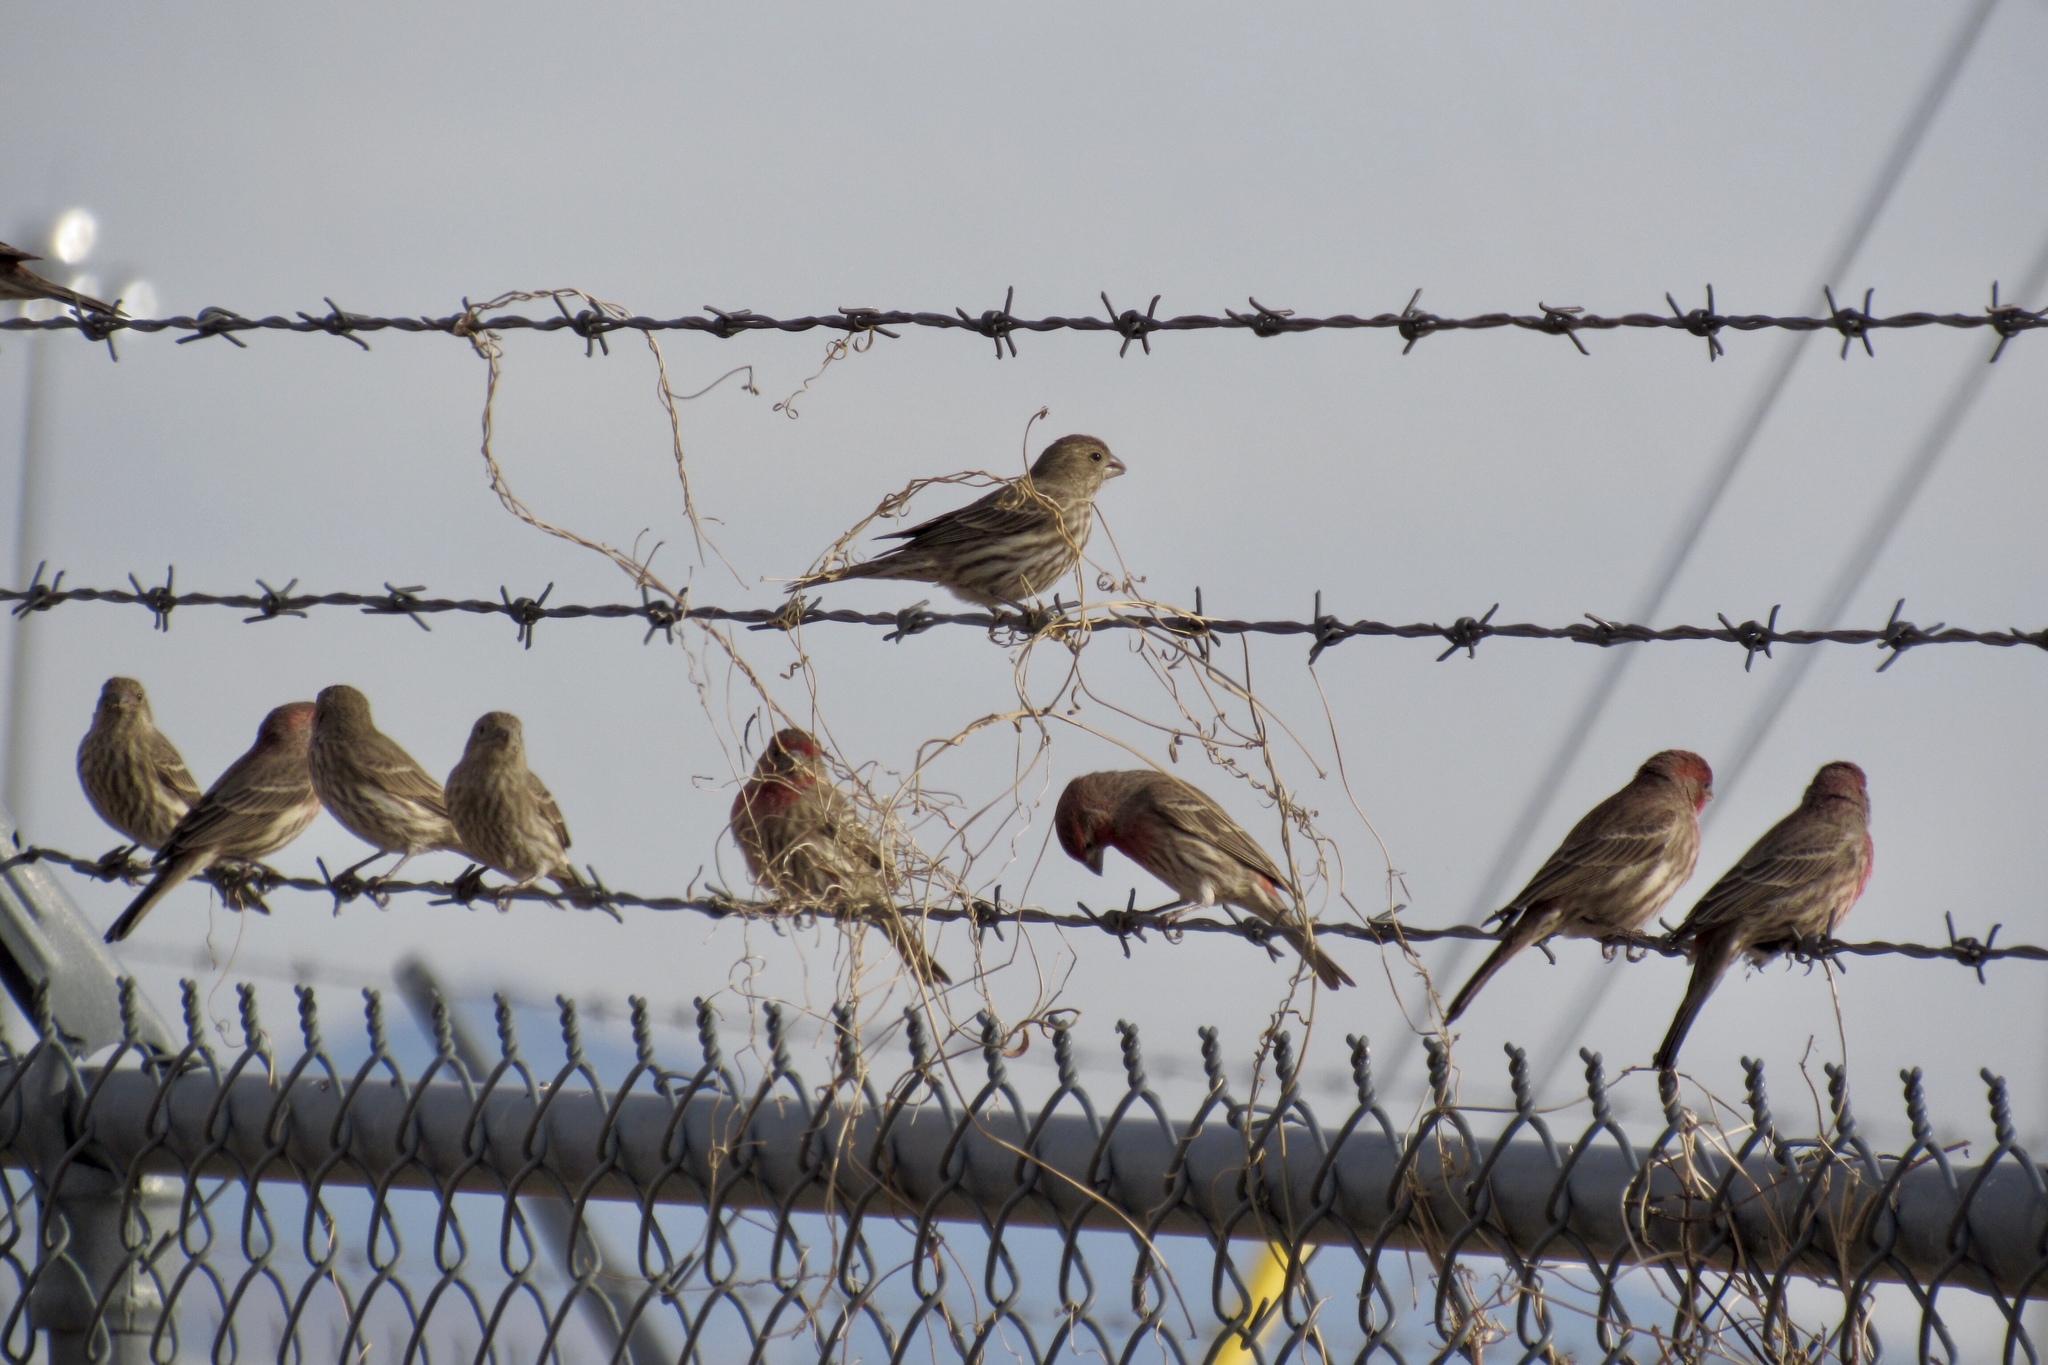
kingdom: Animalia
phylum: Chordata
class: Aves
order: Passeriformes
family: Fringillidae
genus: Haemorhous
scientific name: Haemorhous mexicanus
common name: House finch
